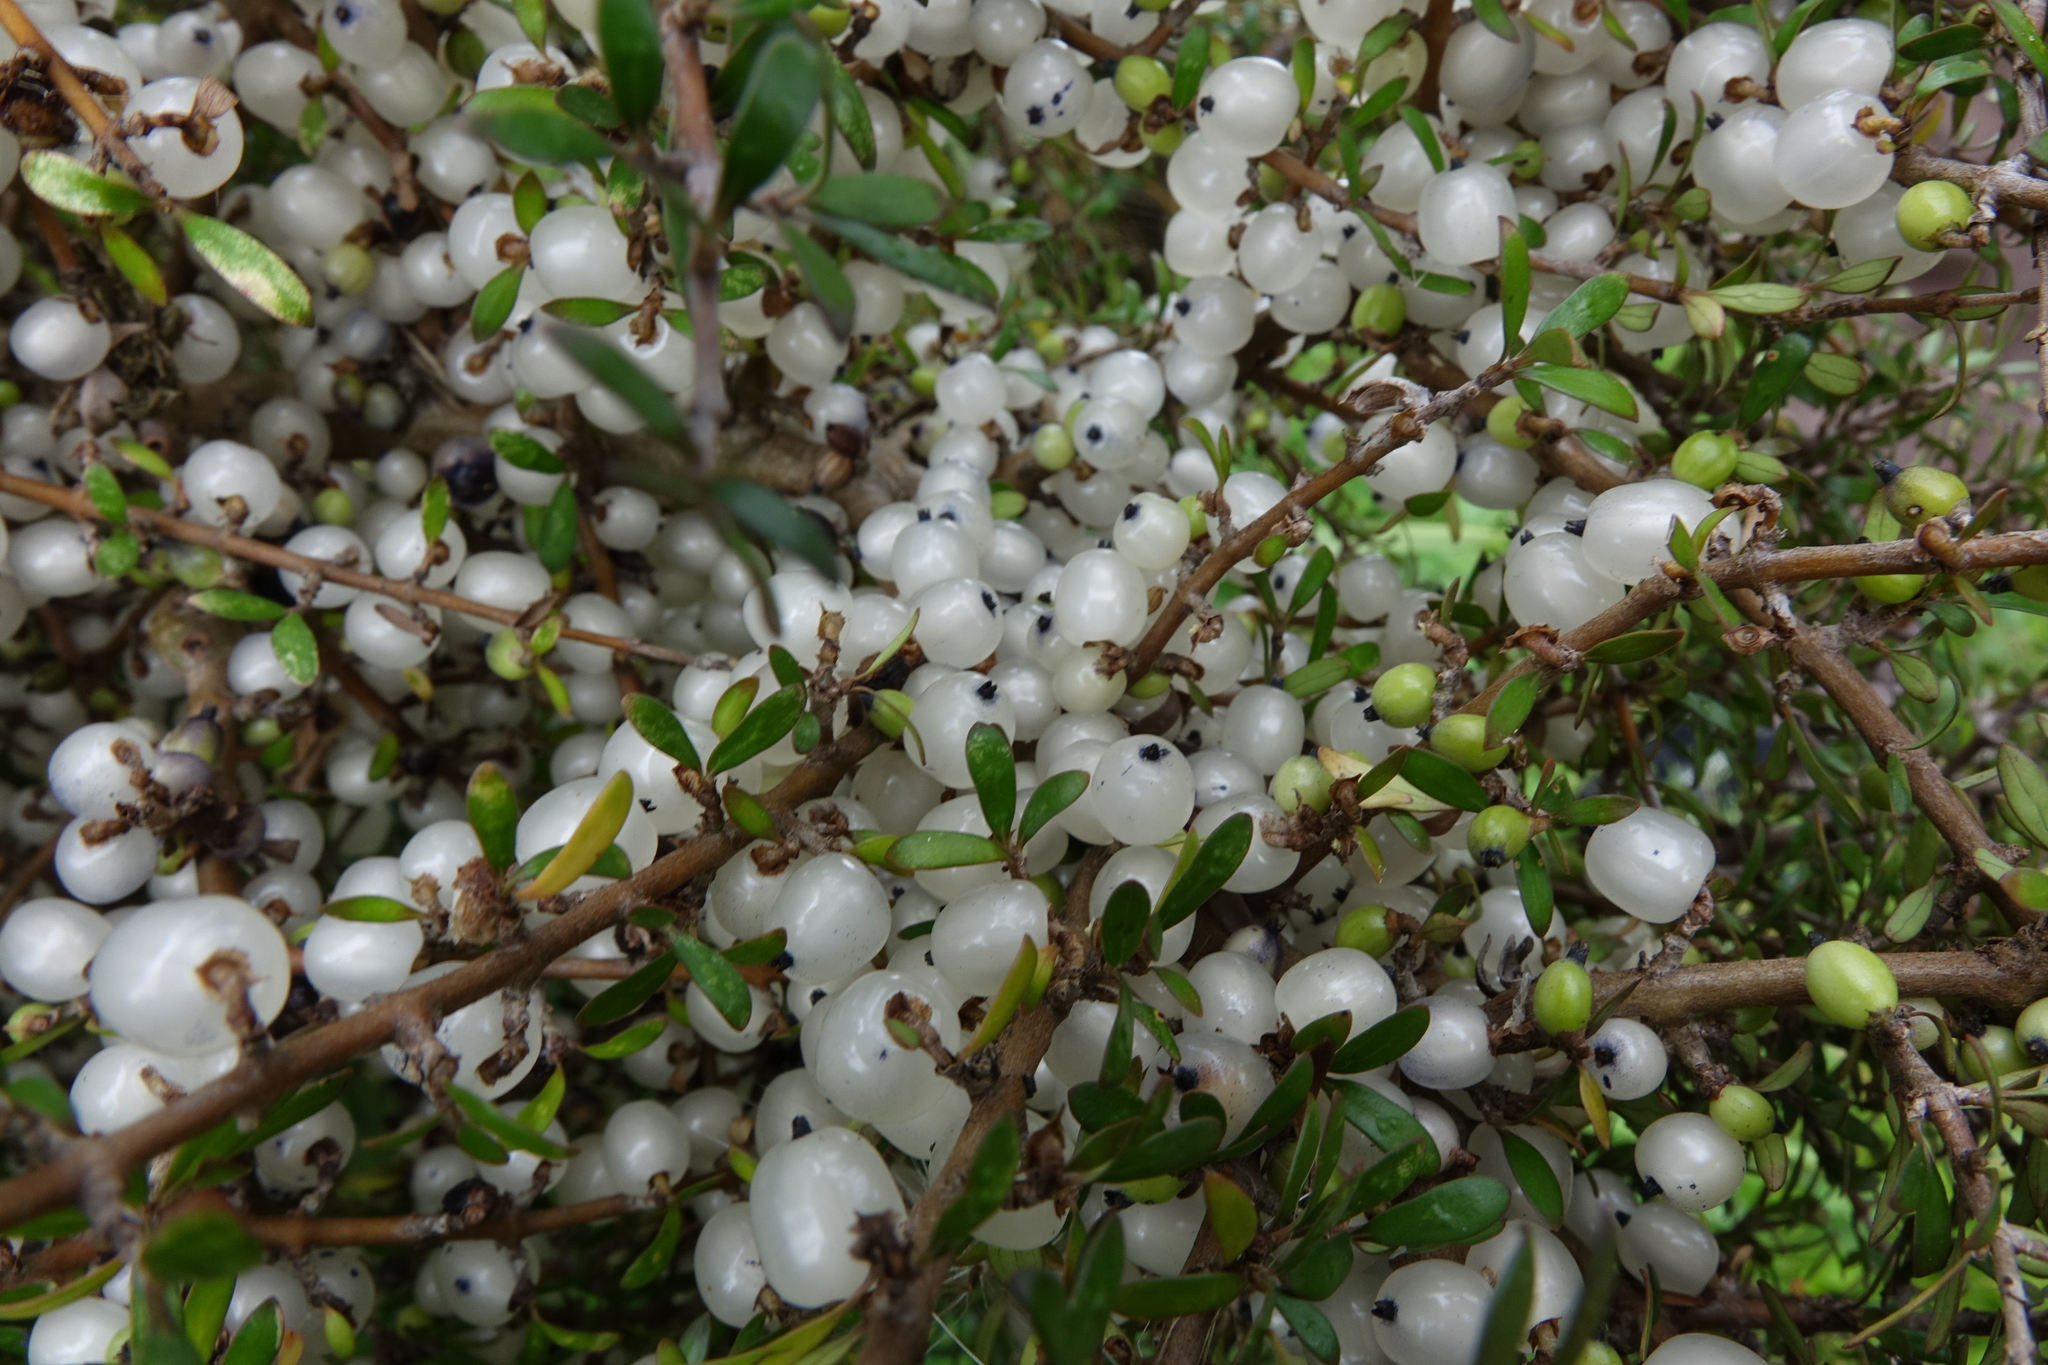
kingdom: Plantae
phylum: Tracheophyta
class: Magnoliopsida
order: Gentianales
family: Rubiaceae
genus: Coprosma
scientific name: Coprosma propinqua
